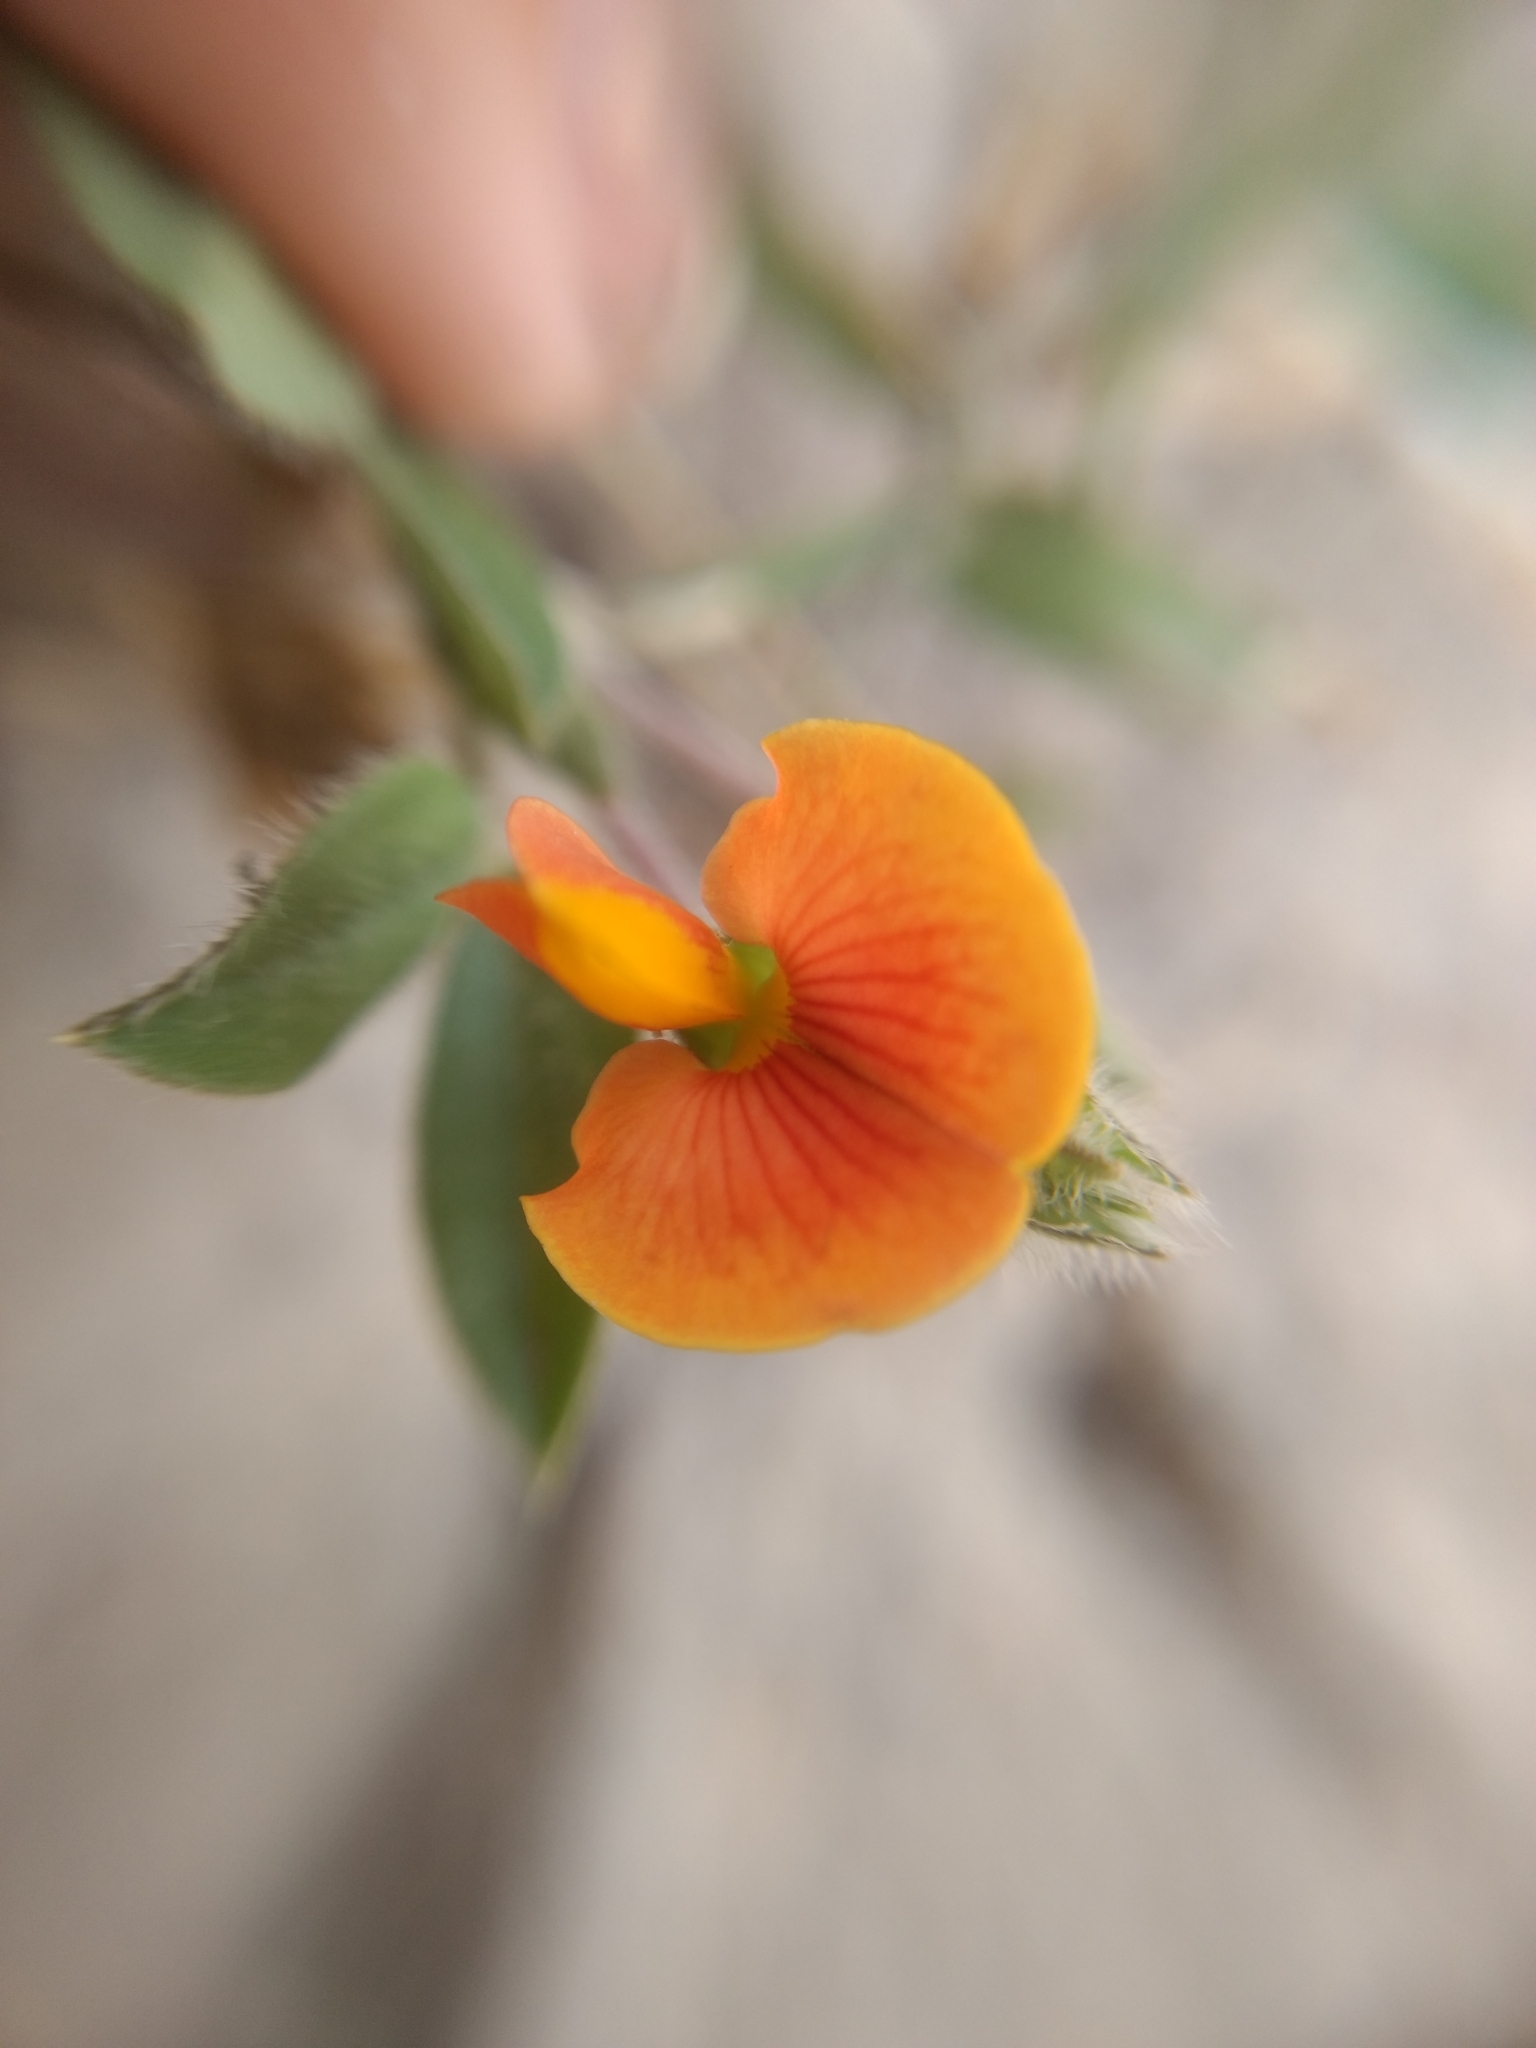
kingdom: Plantae
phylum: Tracheophyta
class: Magnoliopsida
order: Fabales
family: Fabaceae
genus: Zornia
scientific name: Zornia diphylla
